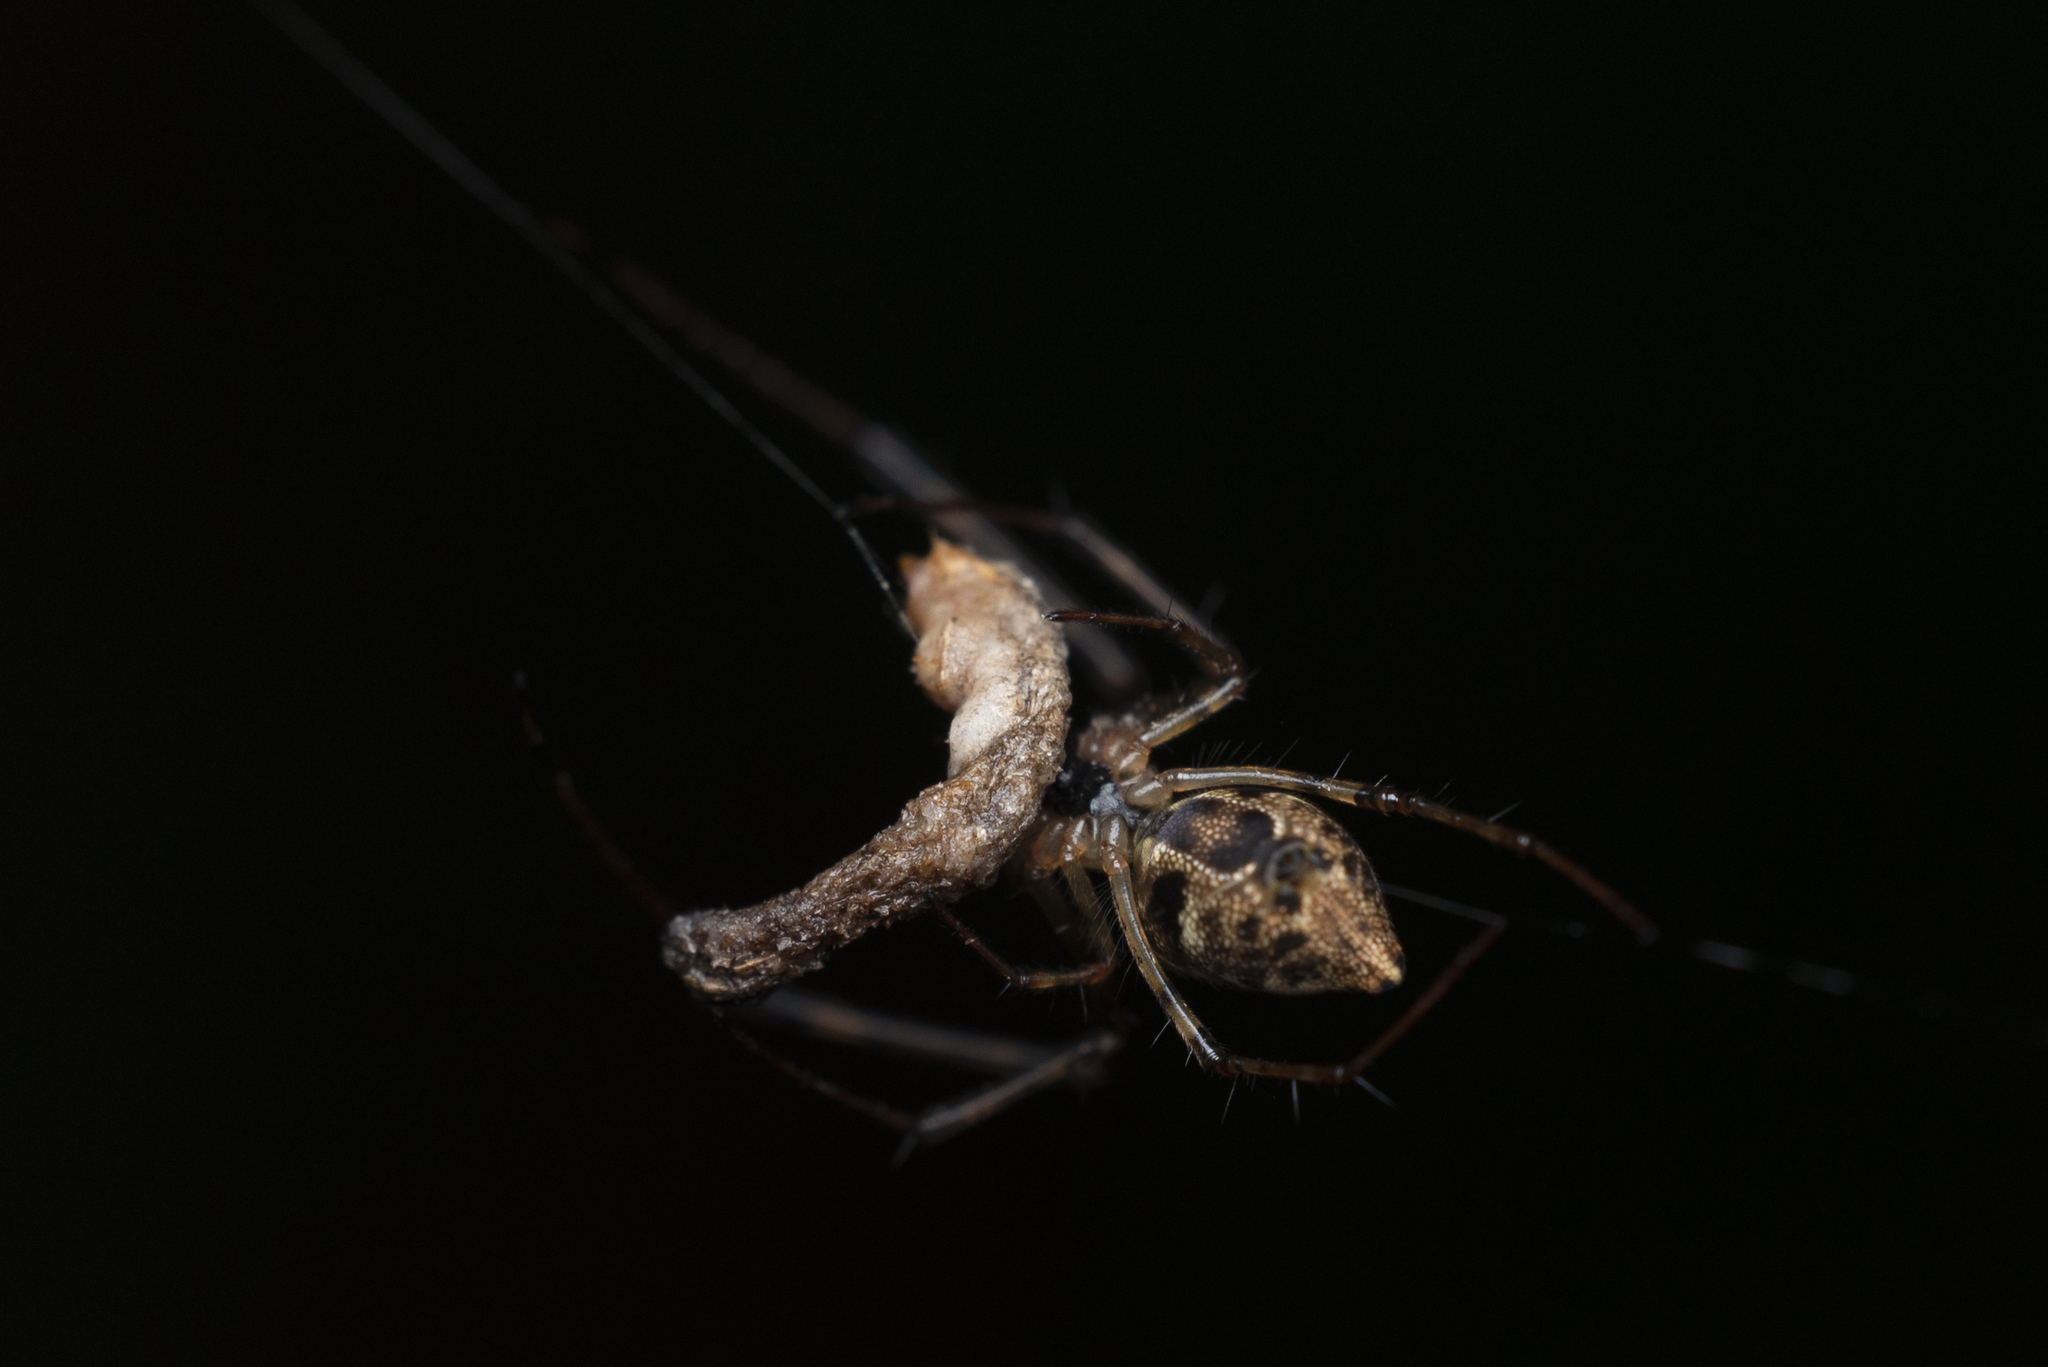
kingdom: Animalia
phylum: Arthropoda
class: Arachnida
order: Araneae
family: Tetragnathidae
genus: Tylorida
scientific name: Tylorida ventralis
